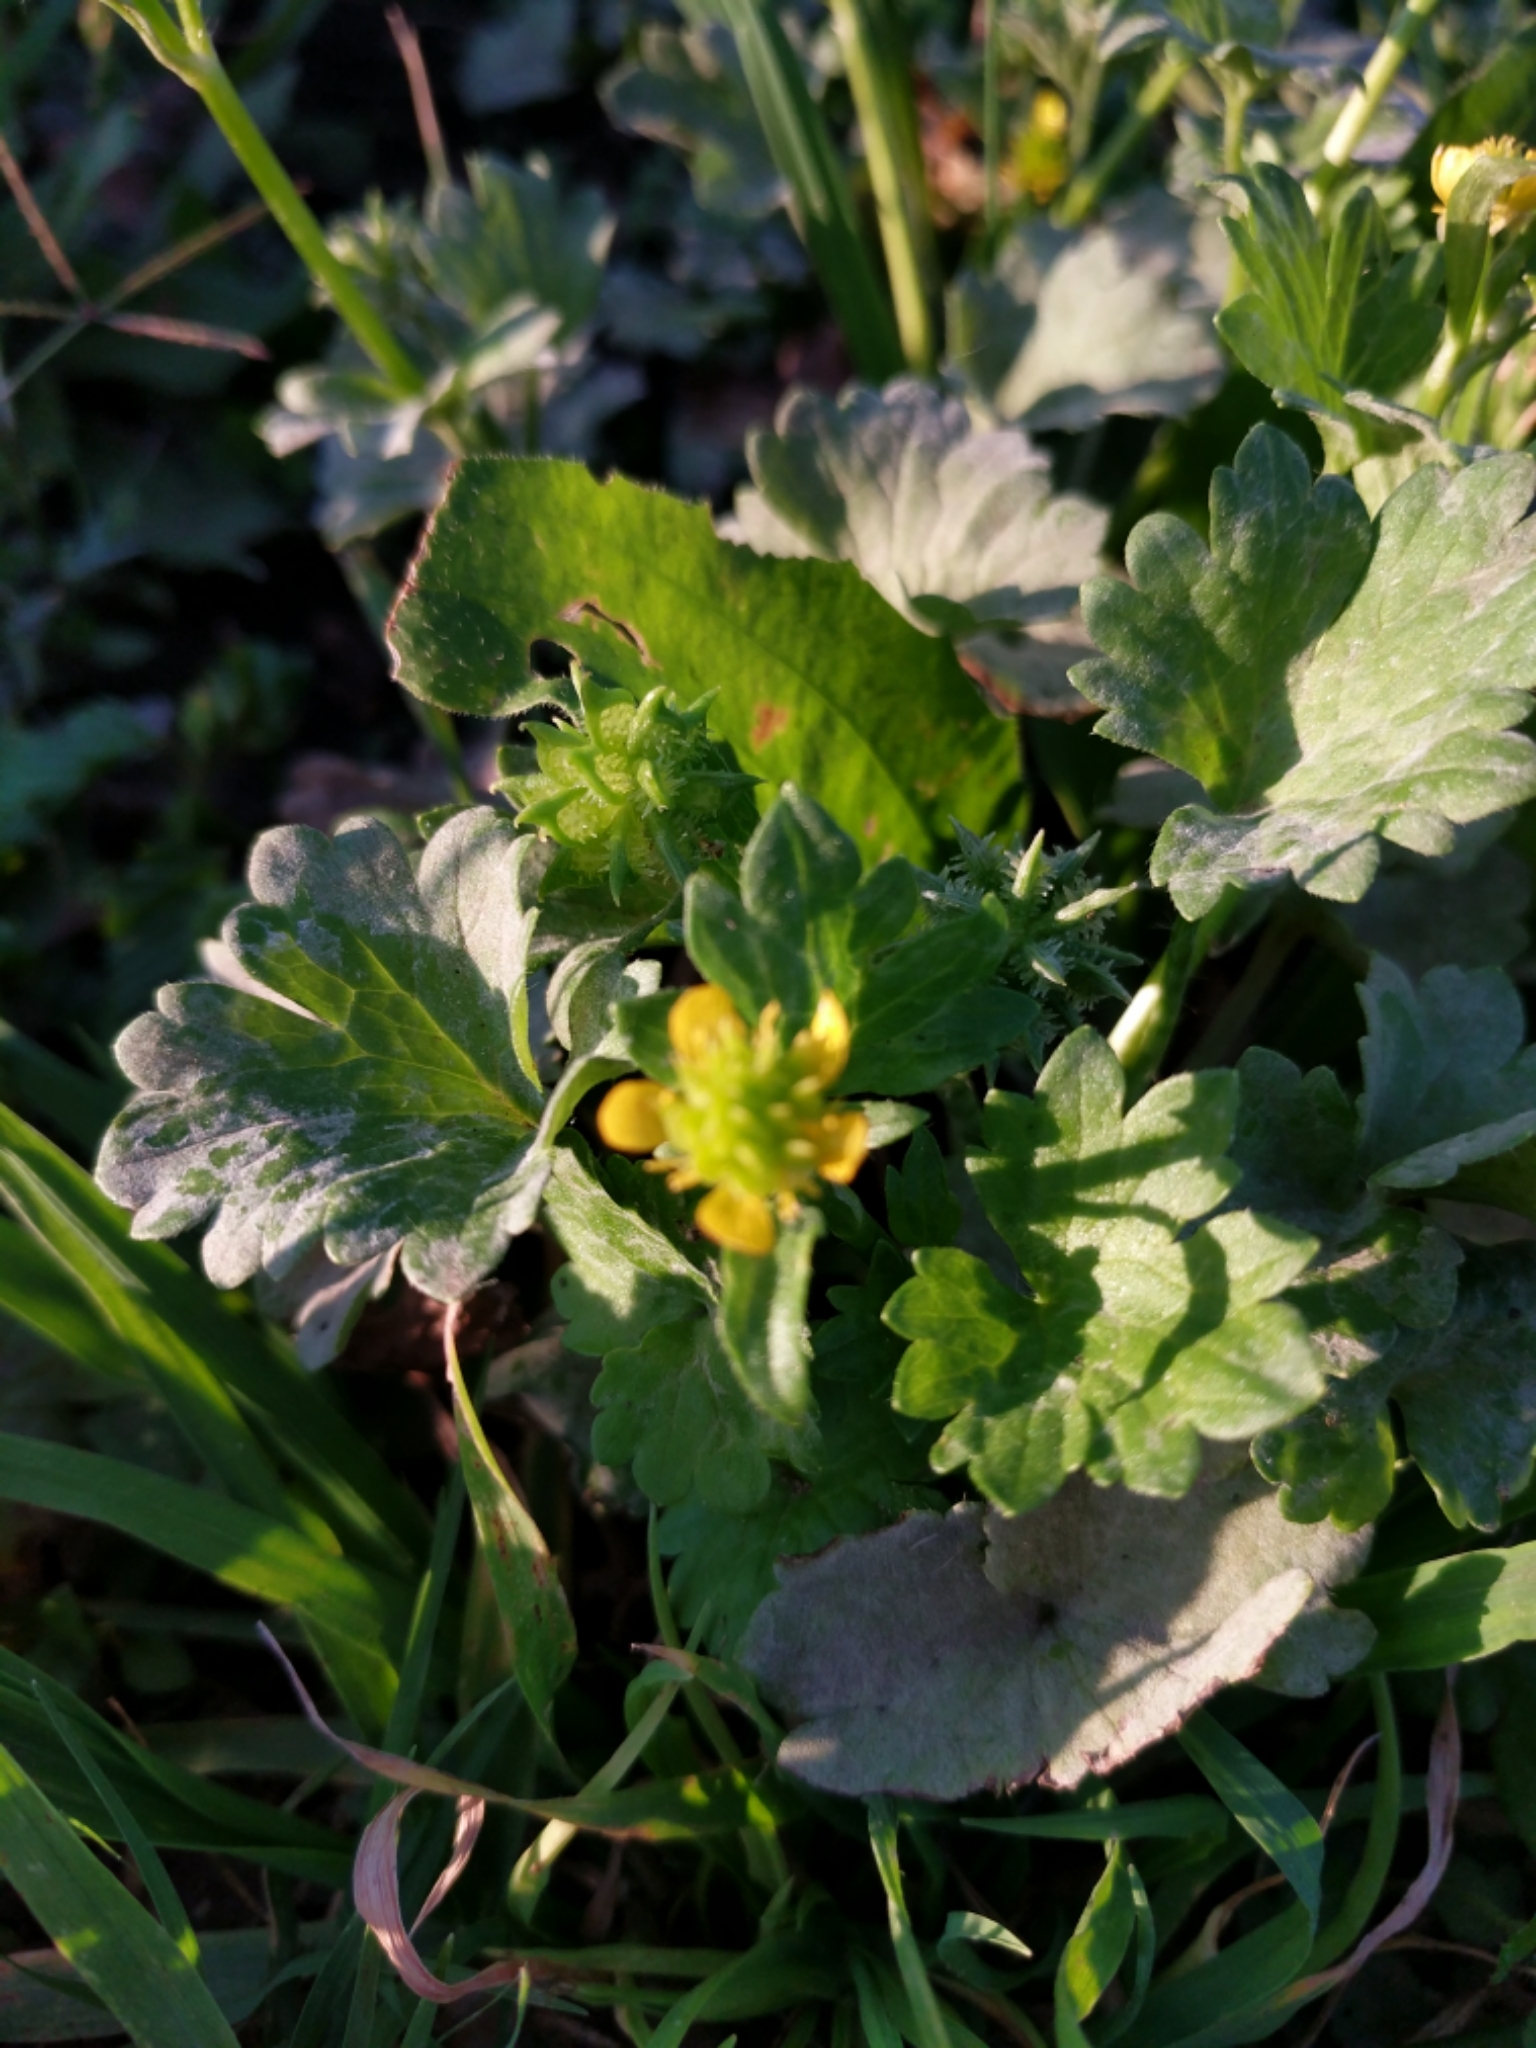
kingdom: Plantae
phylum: Tracheophyta
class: Magnoliopsida
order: Ranunculales
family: Ranunculaceae
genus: Ranunculus
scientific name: Ranunculus muricatus
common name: Rough-fruited buttercup
